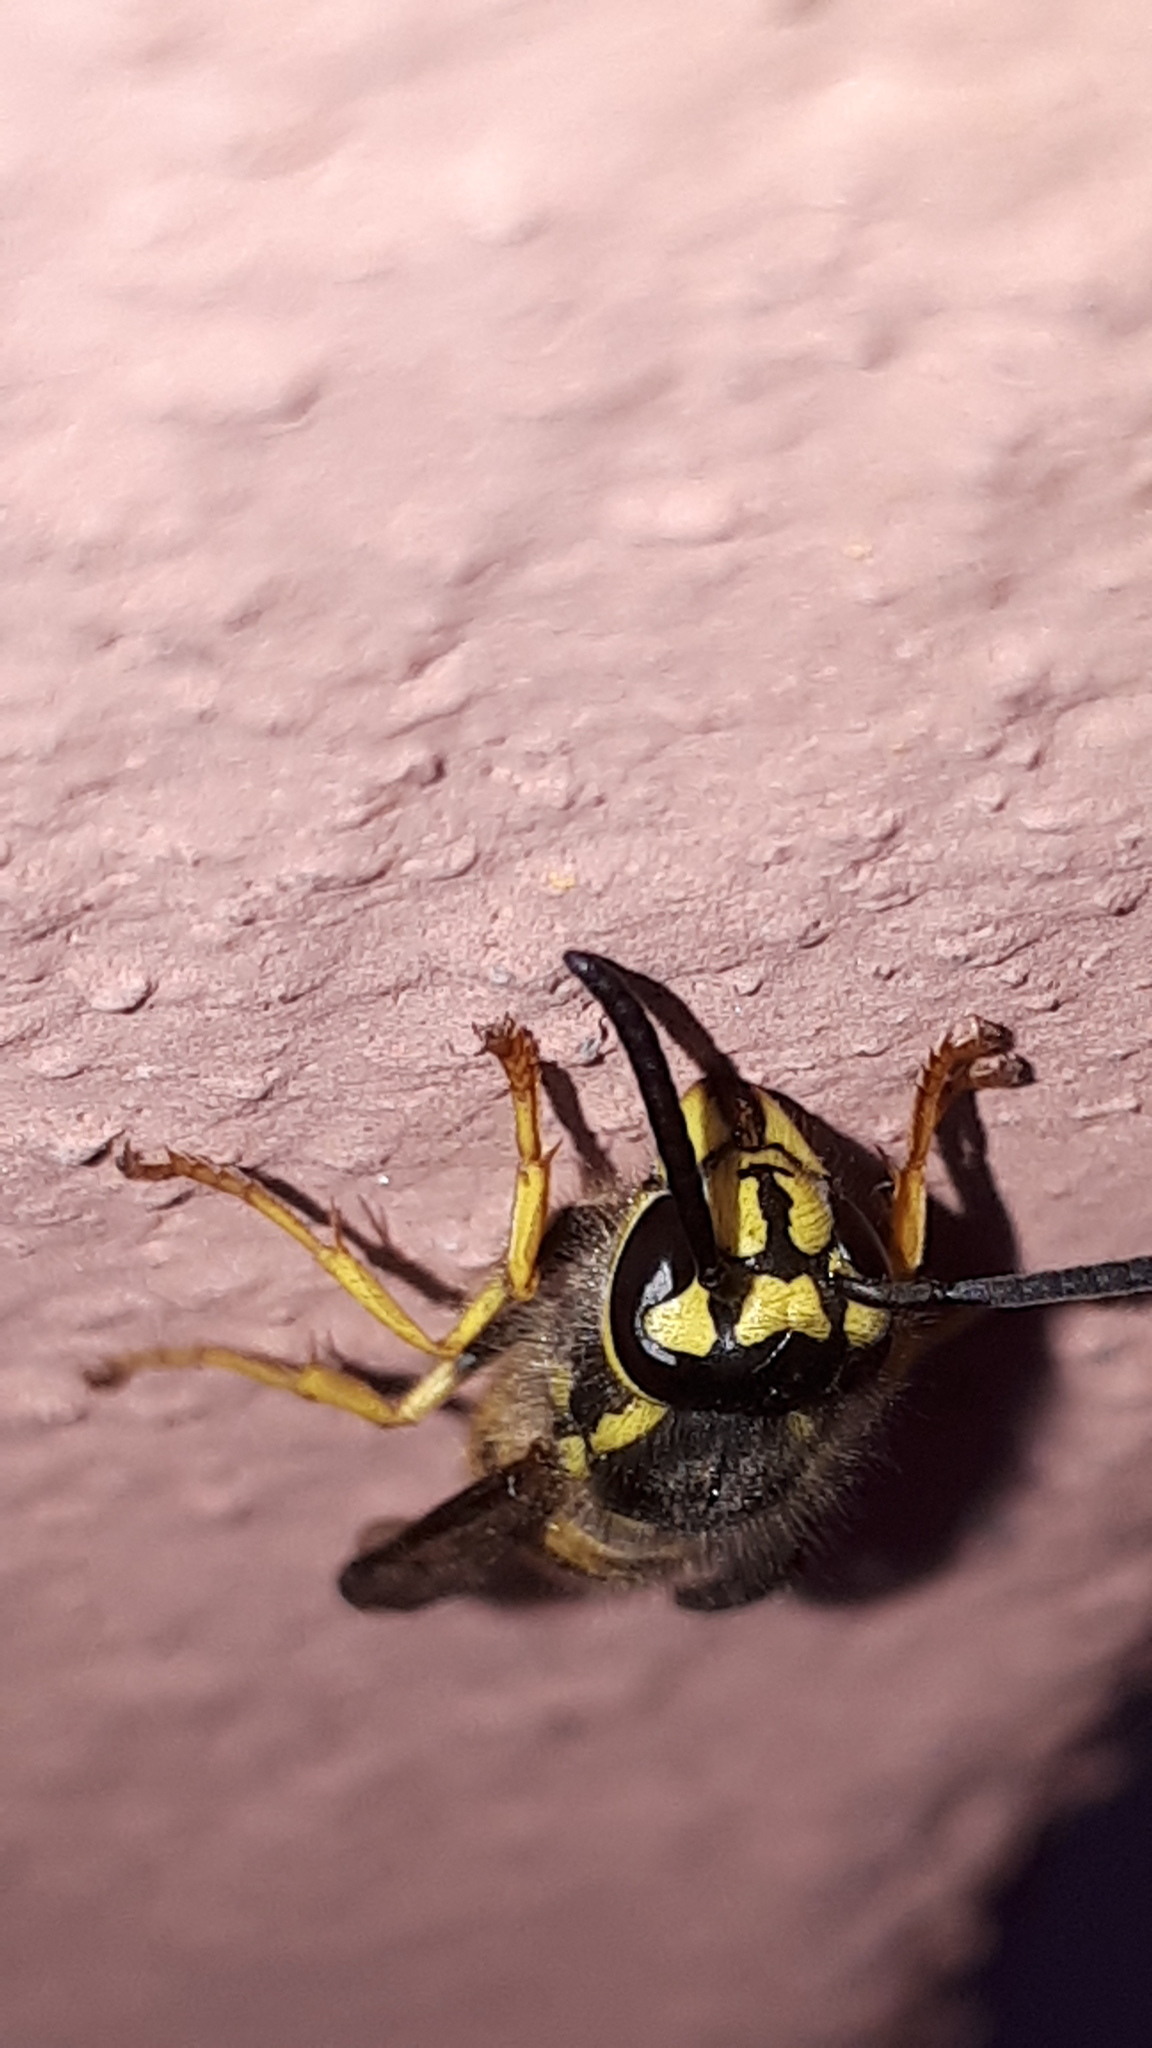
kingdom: Animalia
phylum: Arthropoda
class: Insecta
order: Hymenoptera
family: Vespidae
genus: Vespula
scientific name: Vespula vulgaris
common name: Common wasp
